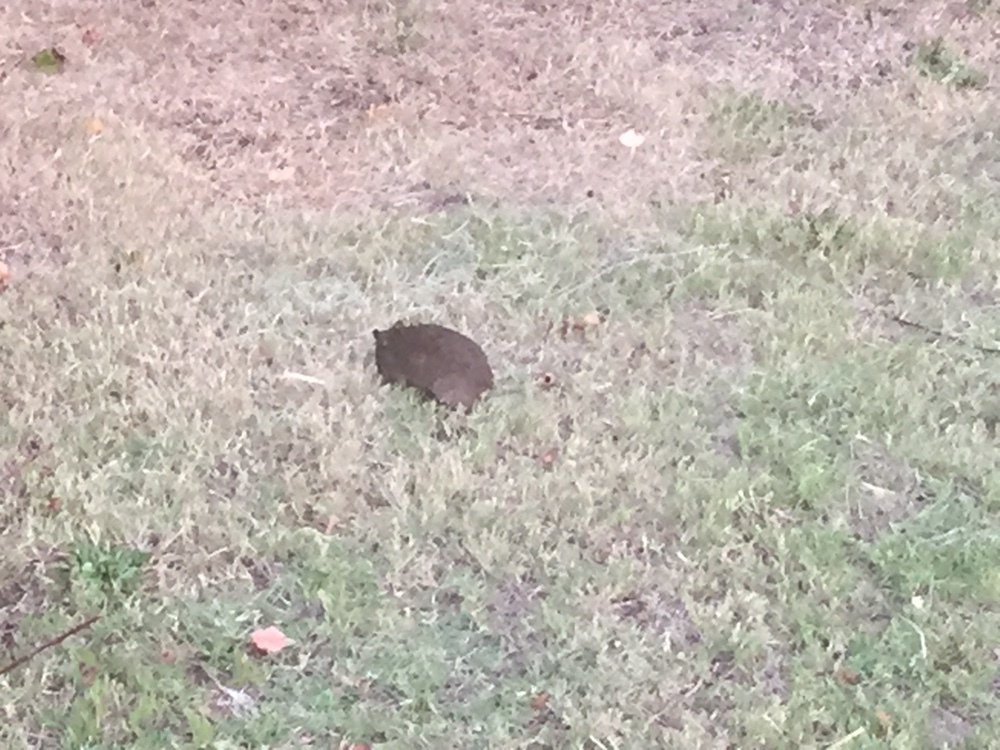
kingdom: Animalia
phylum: Chordata
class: Mammalia
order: Peramelemorphia
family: Peramelidae
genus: Isoodon
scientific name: Isoodon fusciventer
